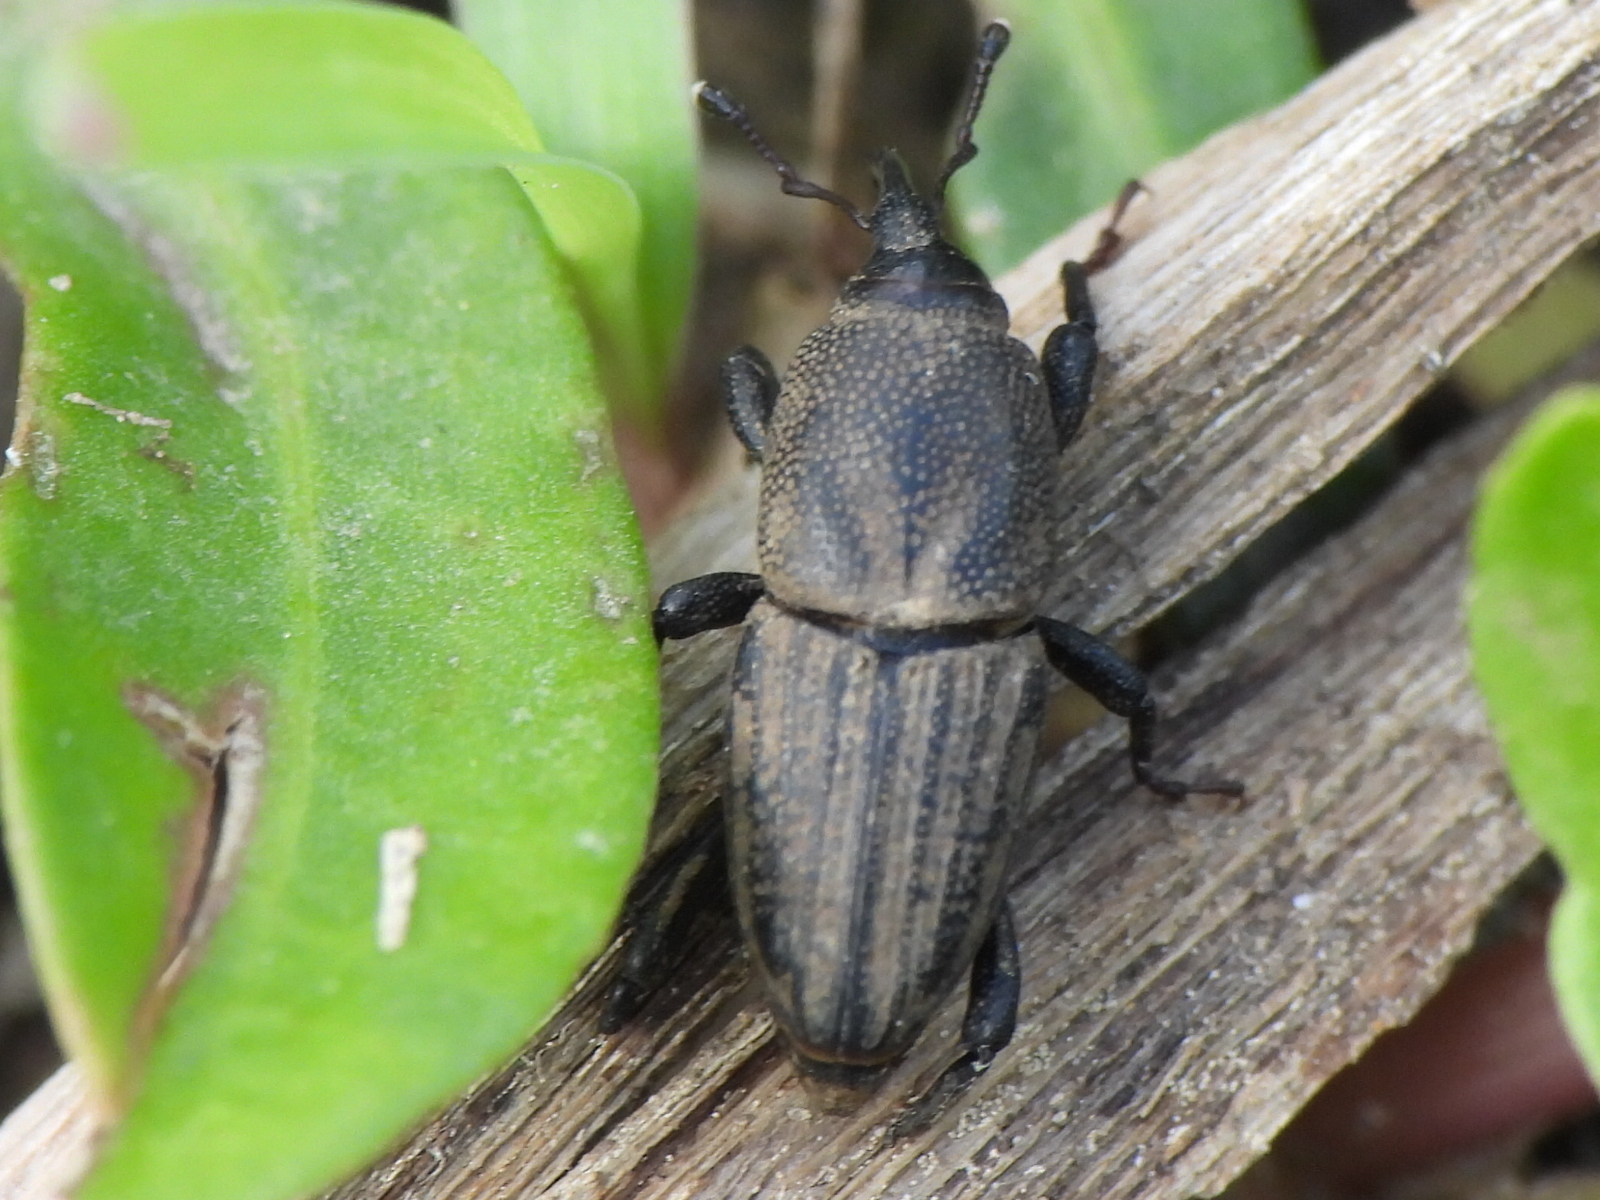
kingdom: Animalia
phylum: Arthropoda
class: Insecta
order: Coleoptera
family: Dryophthoridae
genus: Sphenophorus
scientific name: Sphenophorus interstitialis
